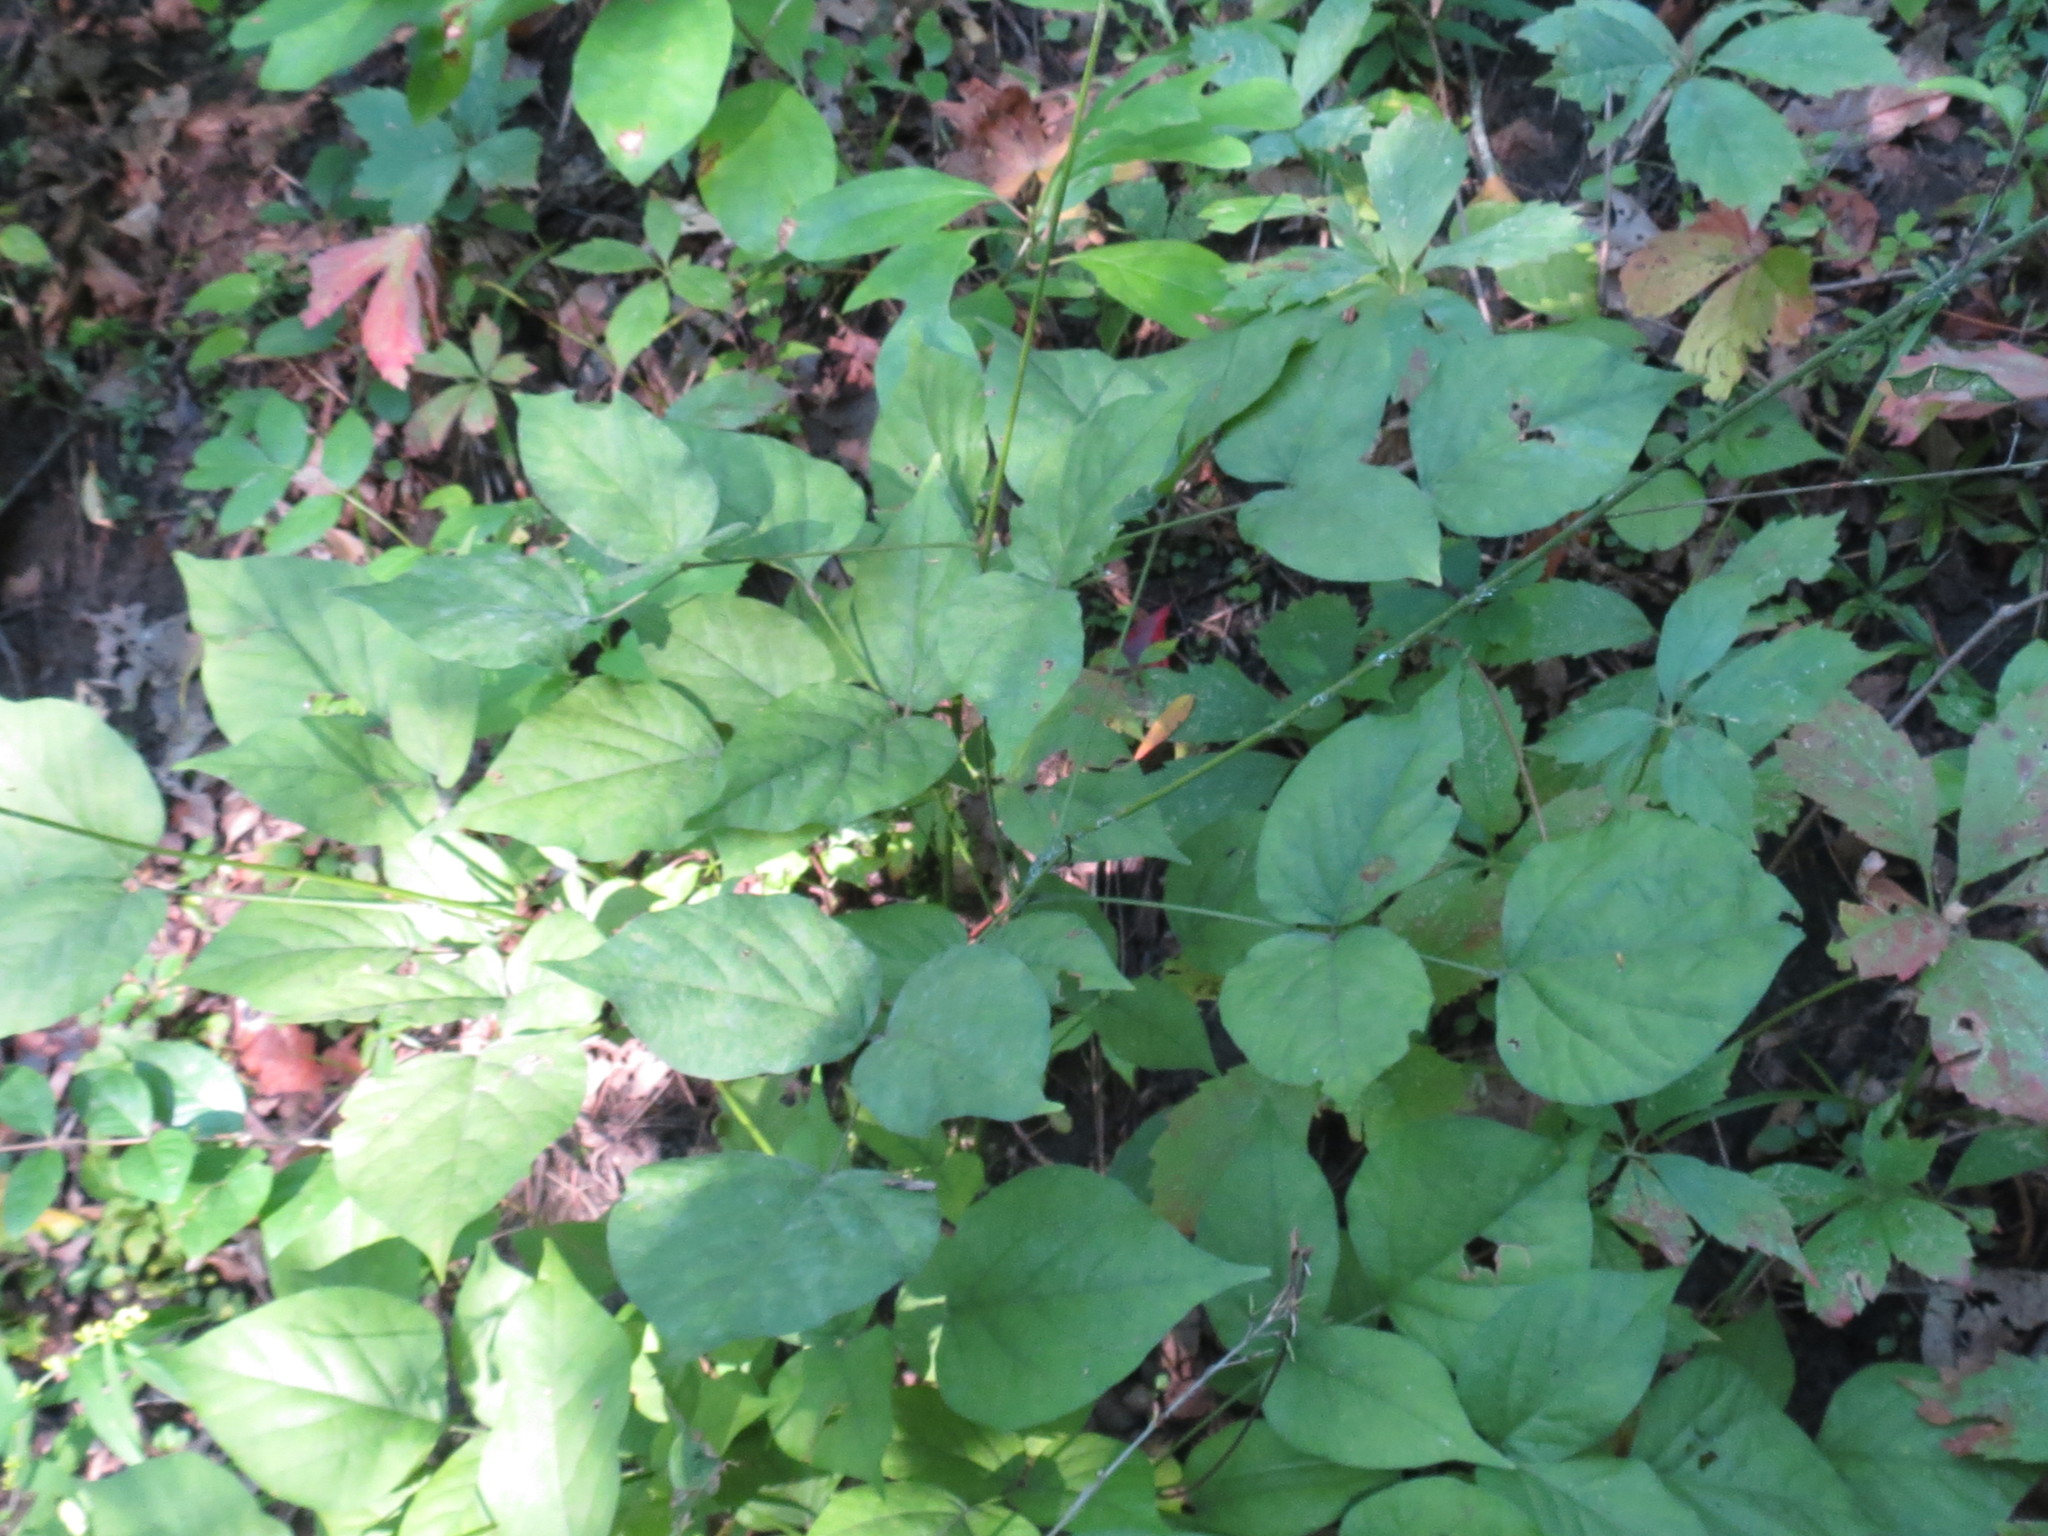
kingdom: Plantae
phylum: Tracheophyta
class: Magnoliopsida
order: Fabales
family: Fabaceae
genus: Hylodesmum
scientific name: Hylodesmum glutinosum
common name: Clustered-leaved tick-trefoil
